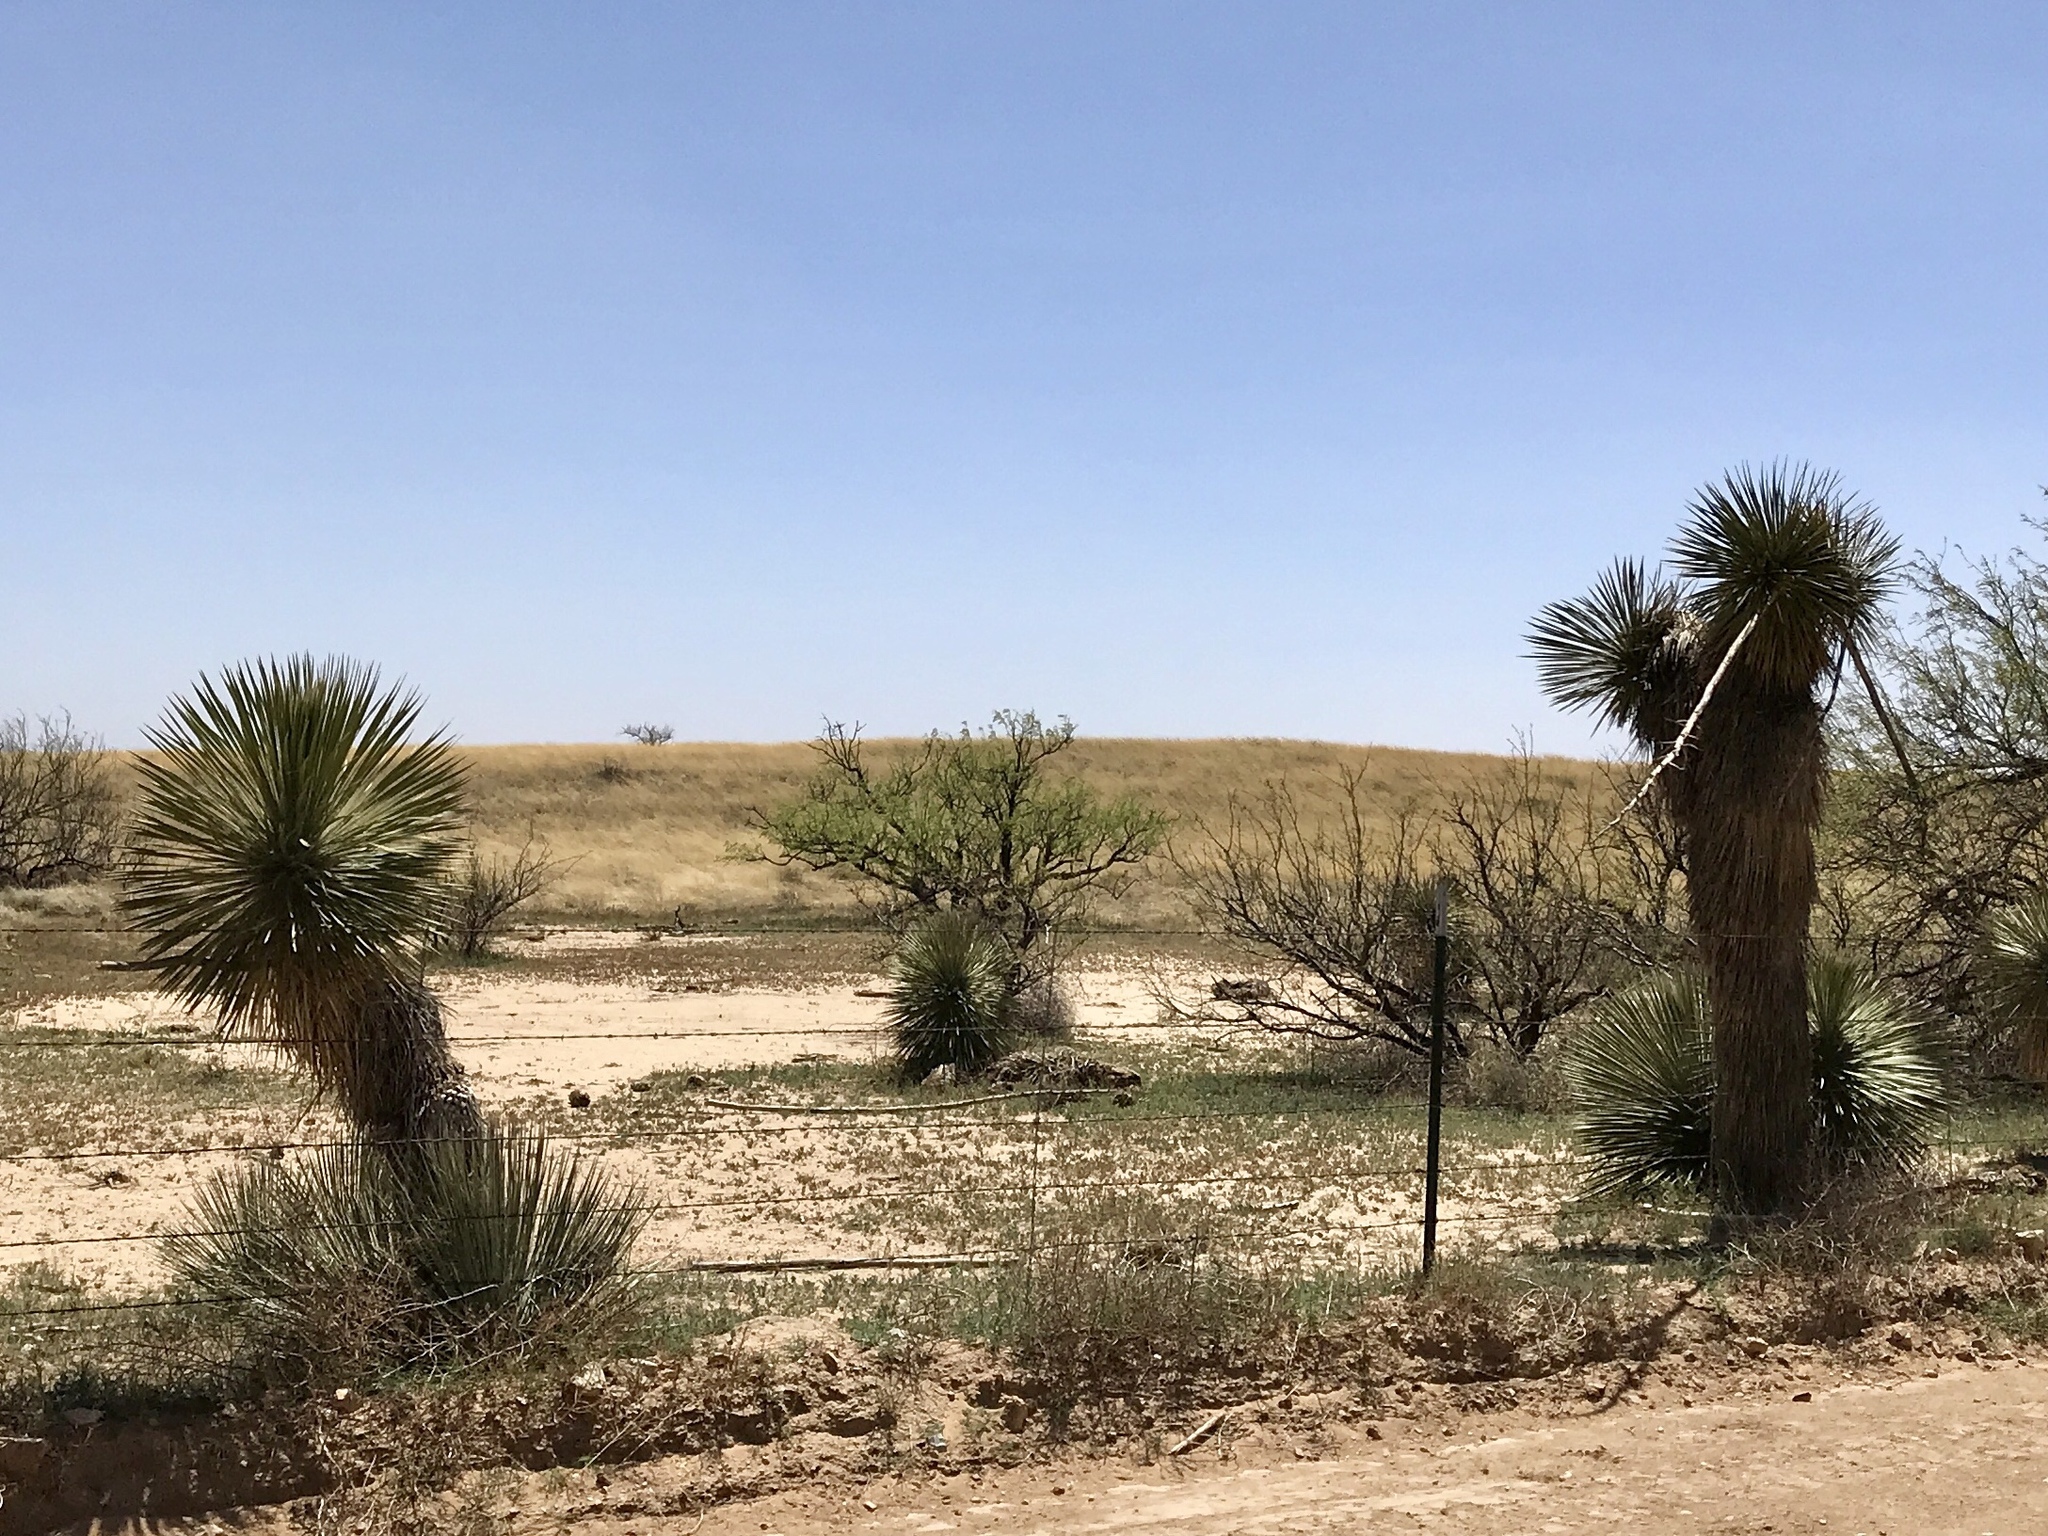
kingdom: Plantae
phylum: Tracheophyta
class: Liliopsida
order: Asparagales
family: Asparagaceae
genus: Yucca
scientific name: Yucca elata
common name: Palmella
